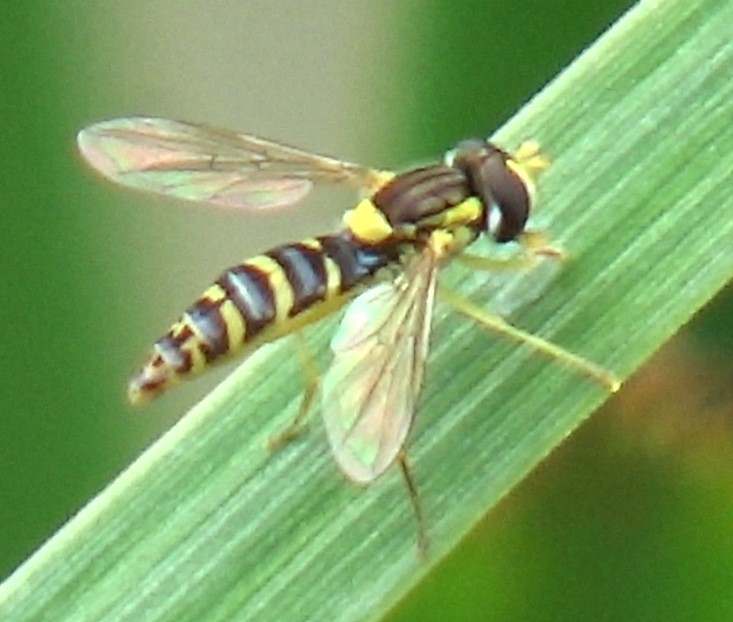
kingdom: Animalia
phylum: Arthropoda
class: Insecta
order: Diptera
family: Syrphidae
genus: Sphaerophoria
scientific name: Sphaerophoria
